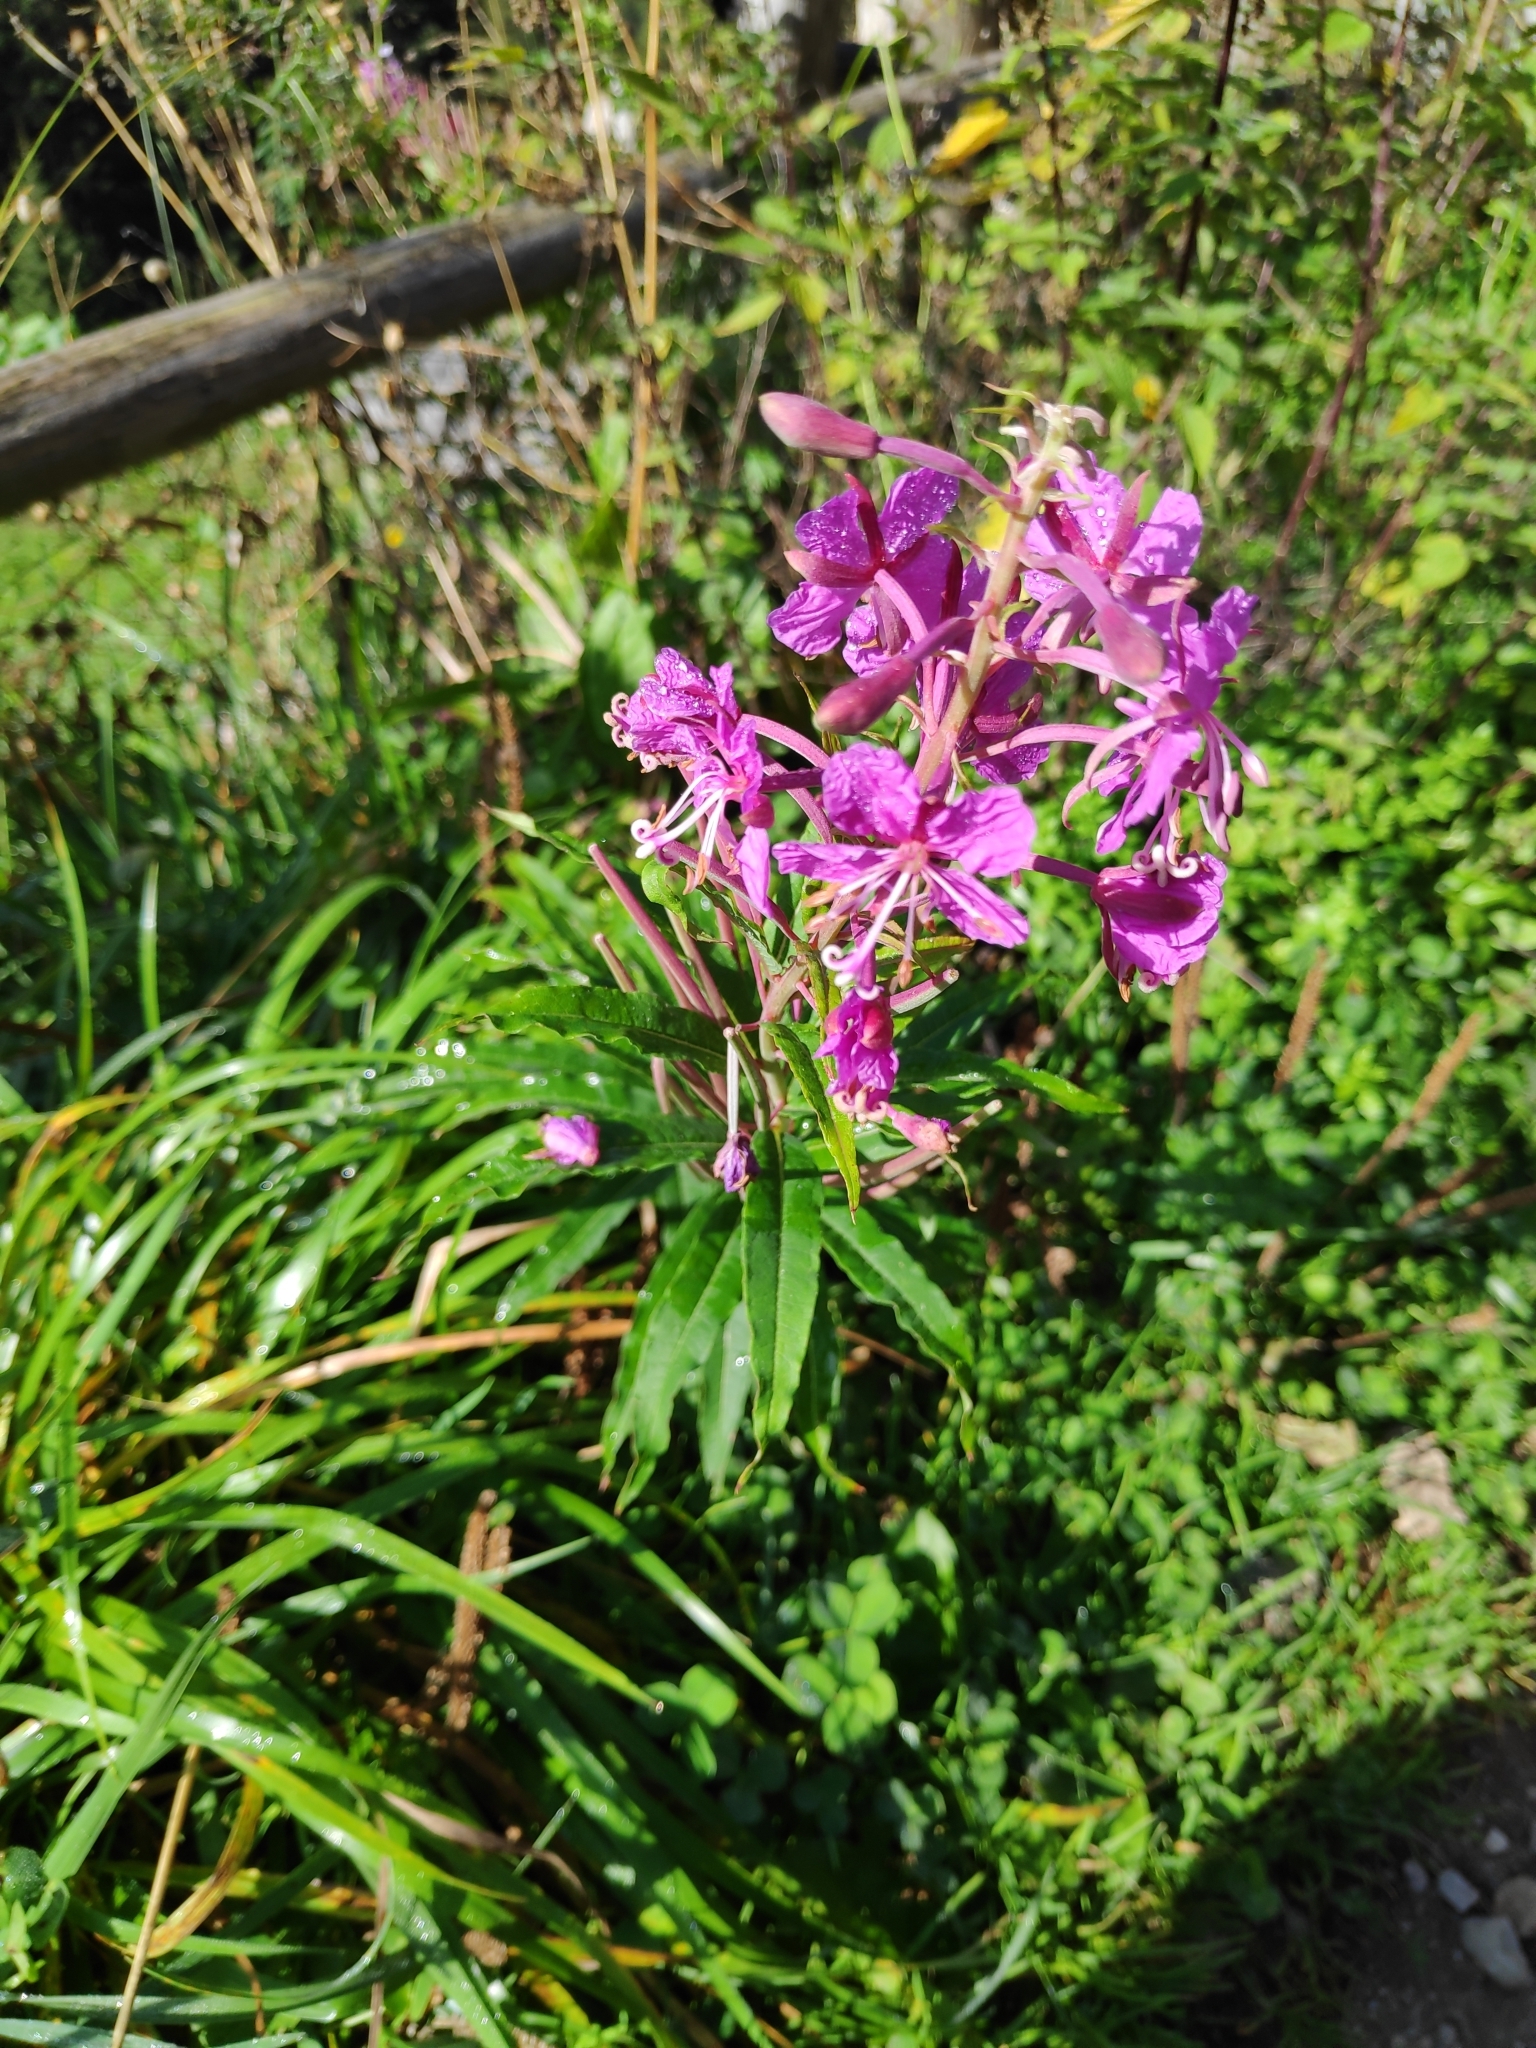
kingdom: Plantae
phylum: Tracheophyta
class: Magnoliopsida
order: Myrtales
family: Onagraceae
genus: Chamaenerion
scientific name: Chamaenerion angustifolium
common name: Fireweed
